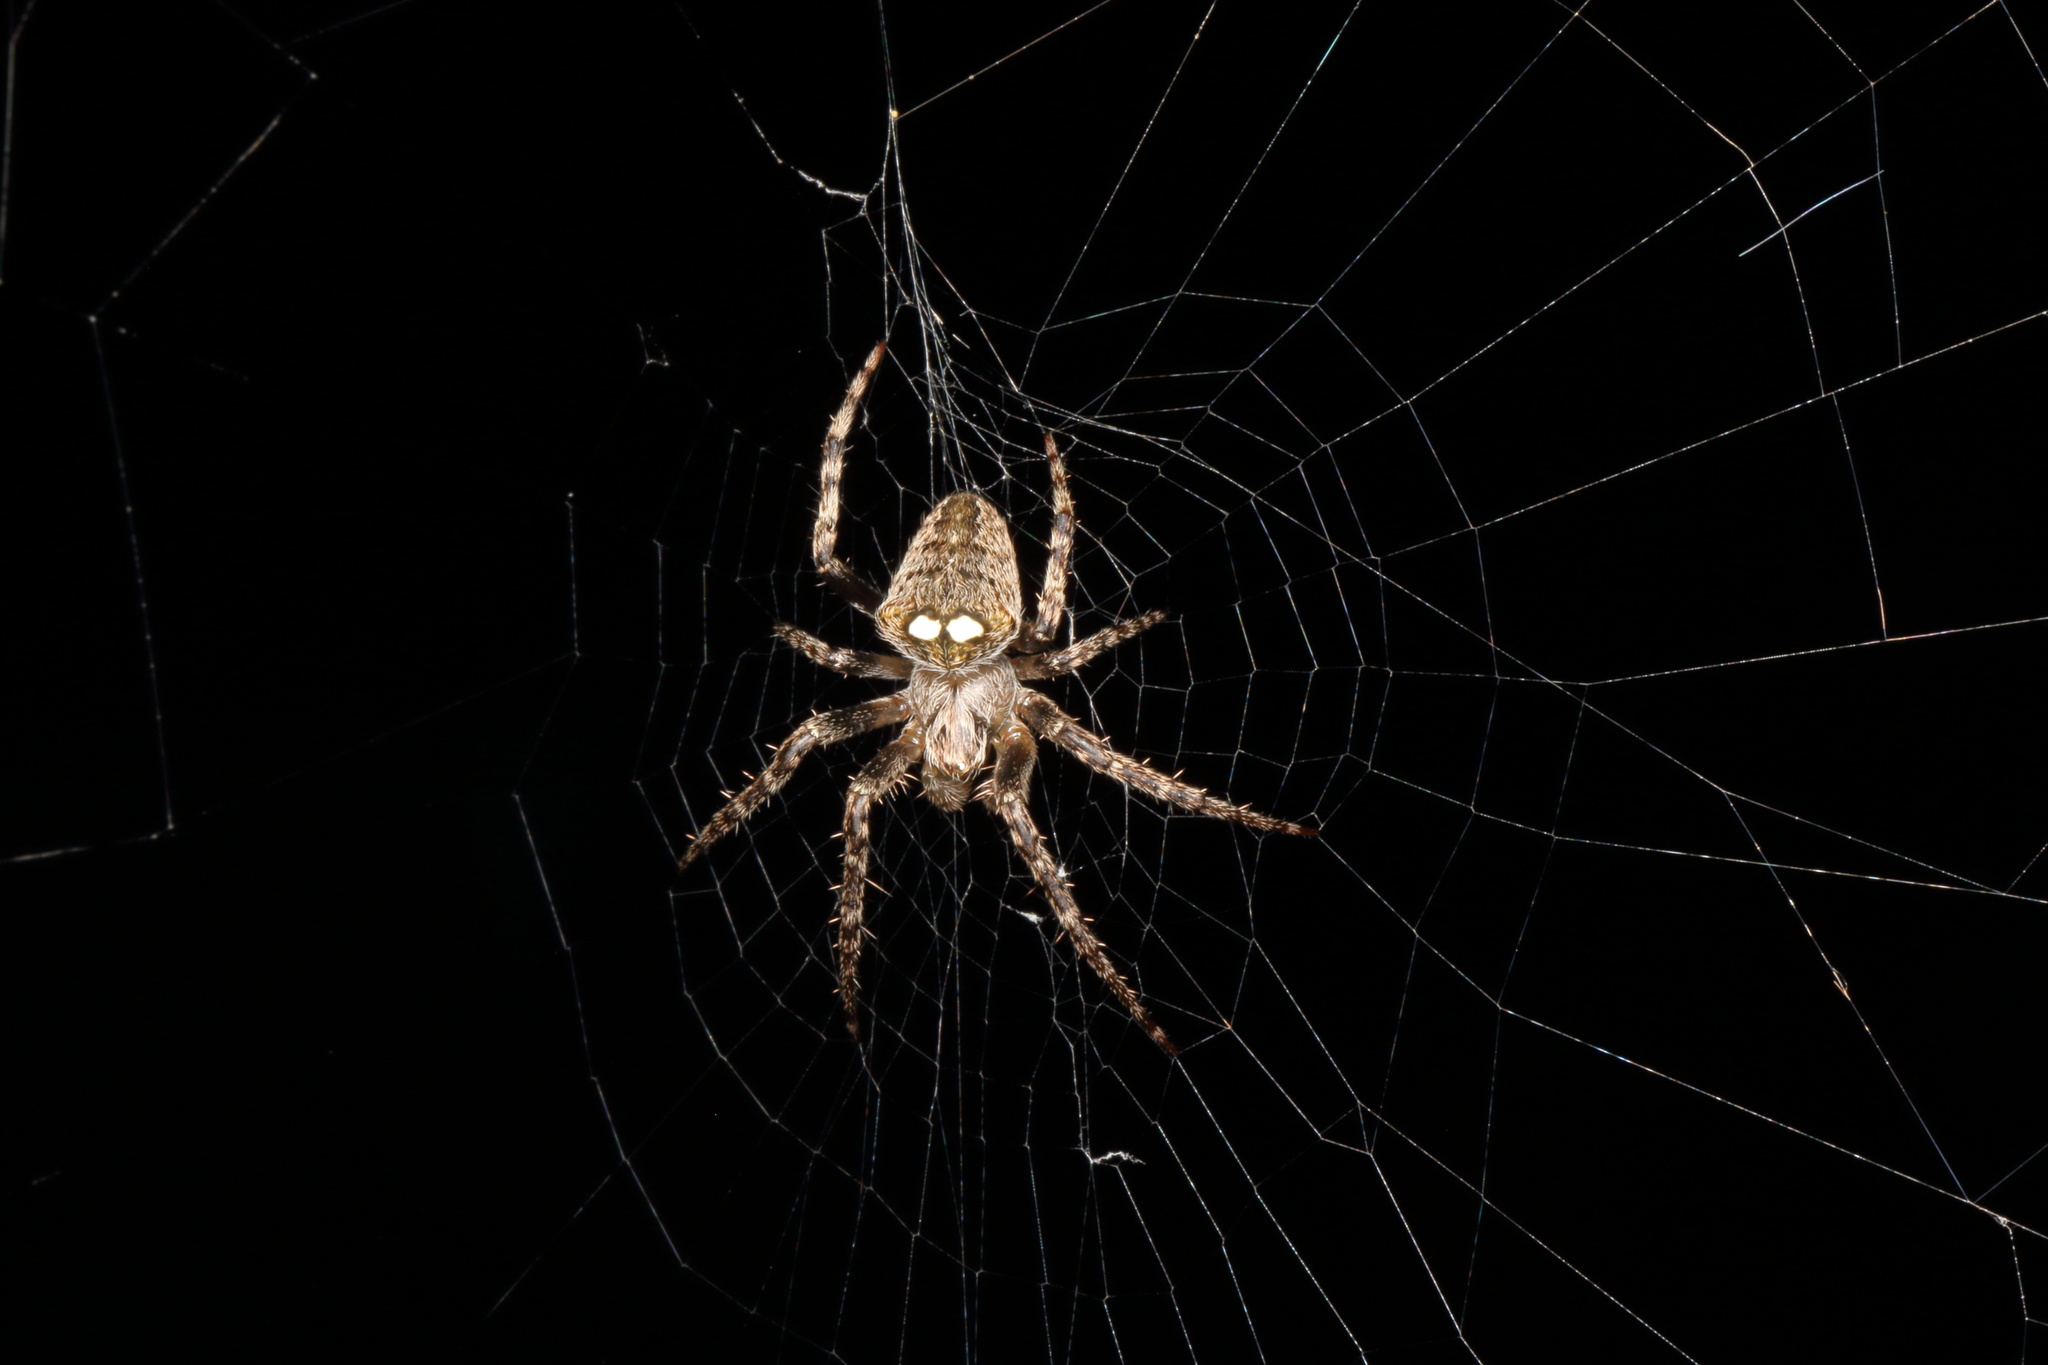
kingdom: Animalia
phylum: Arthropoda
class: Arachnida
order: Araneae
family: Araneidae
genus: Zealaranea
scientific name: Zealaranea trinotata
